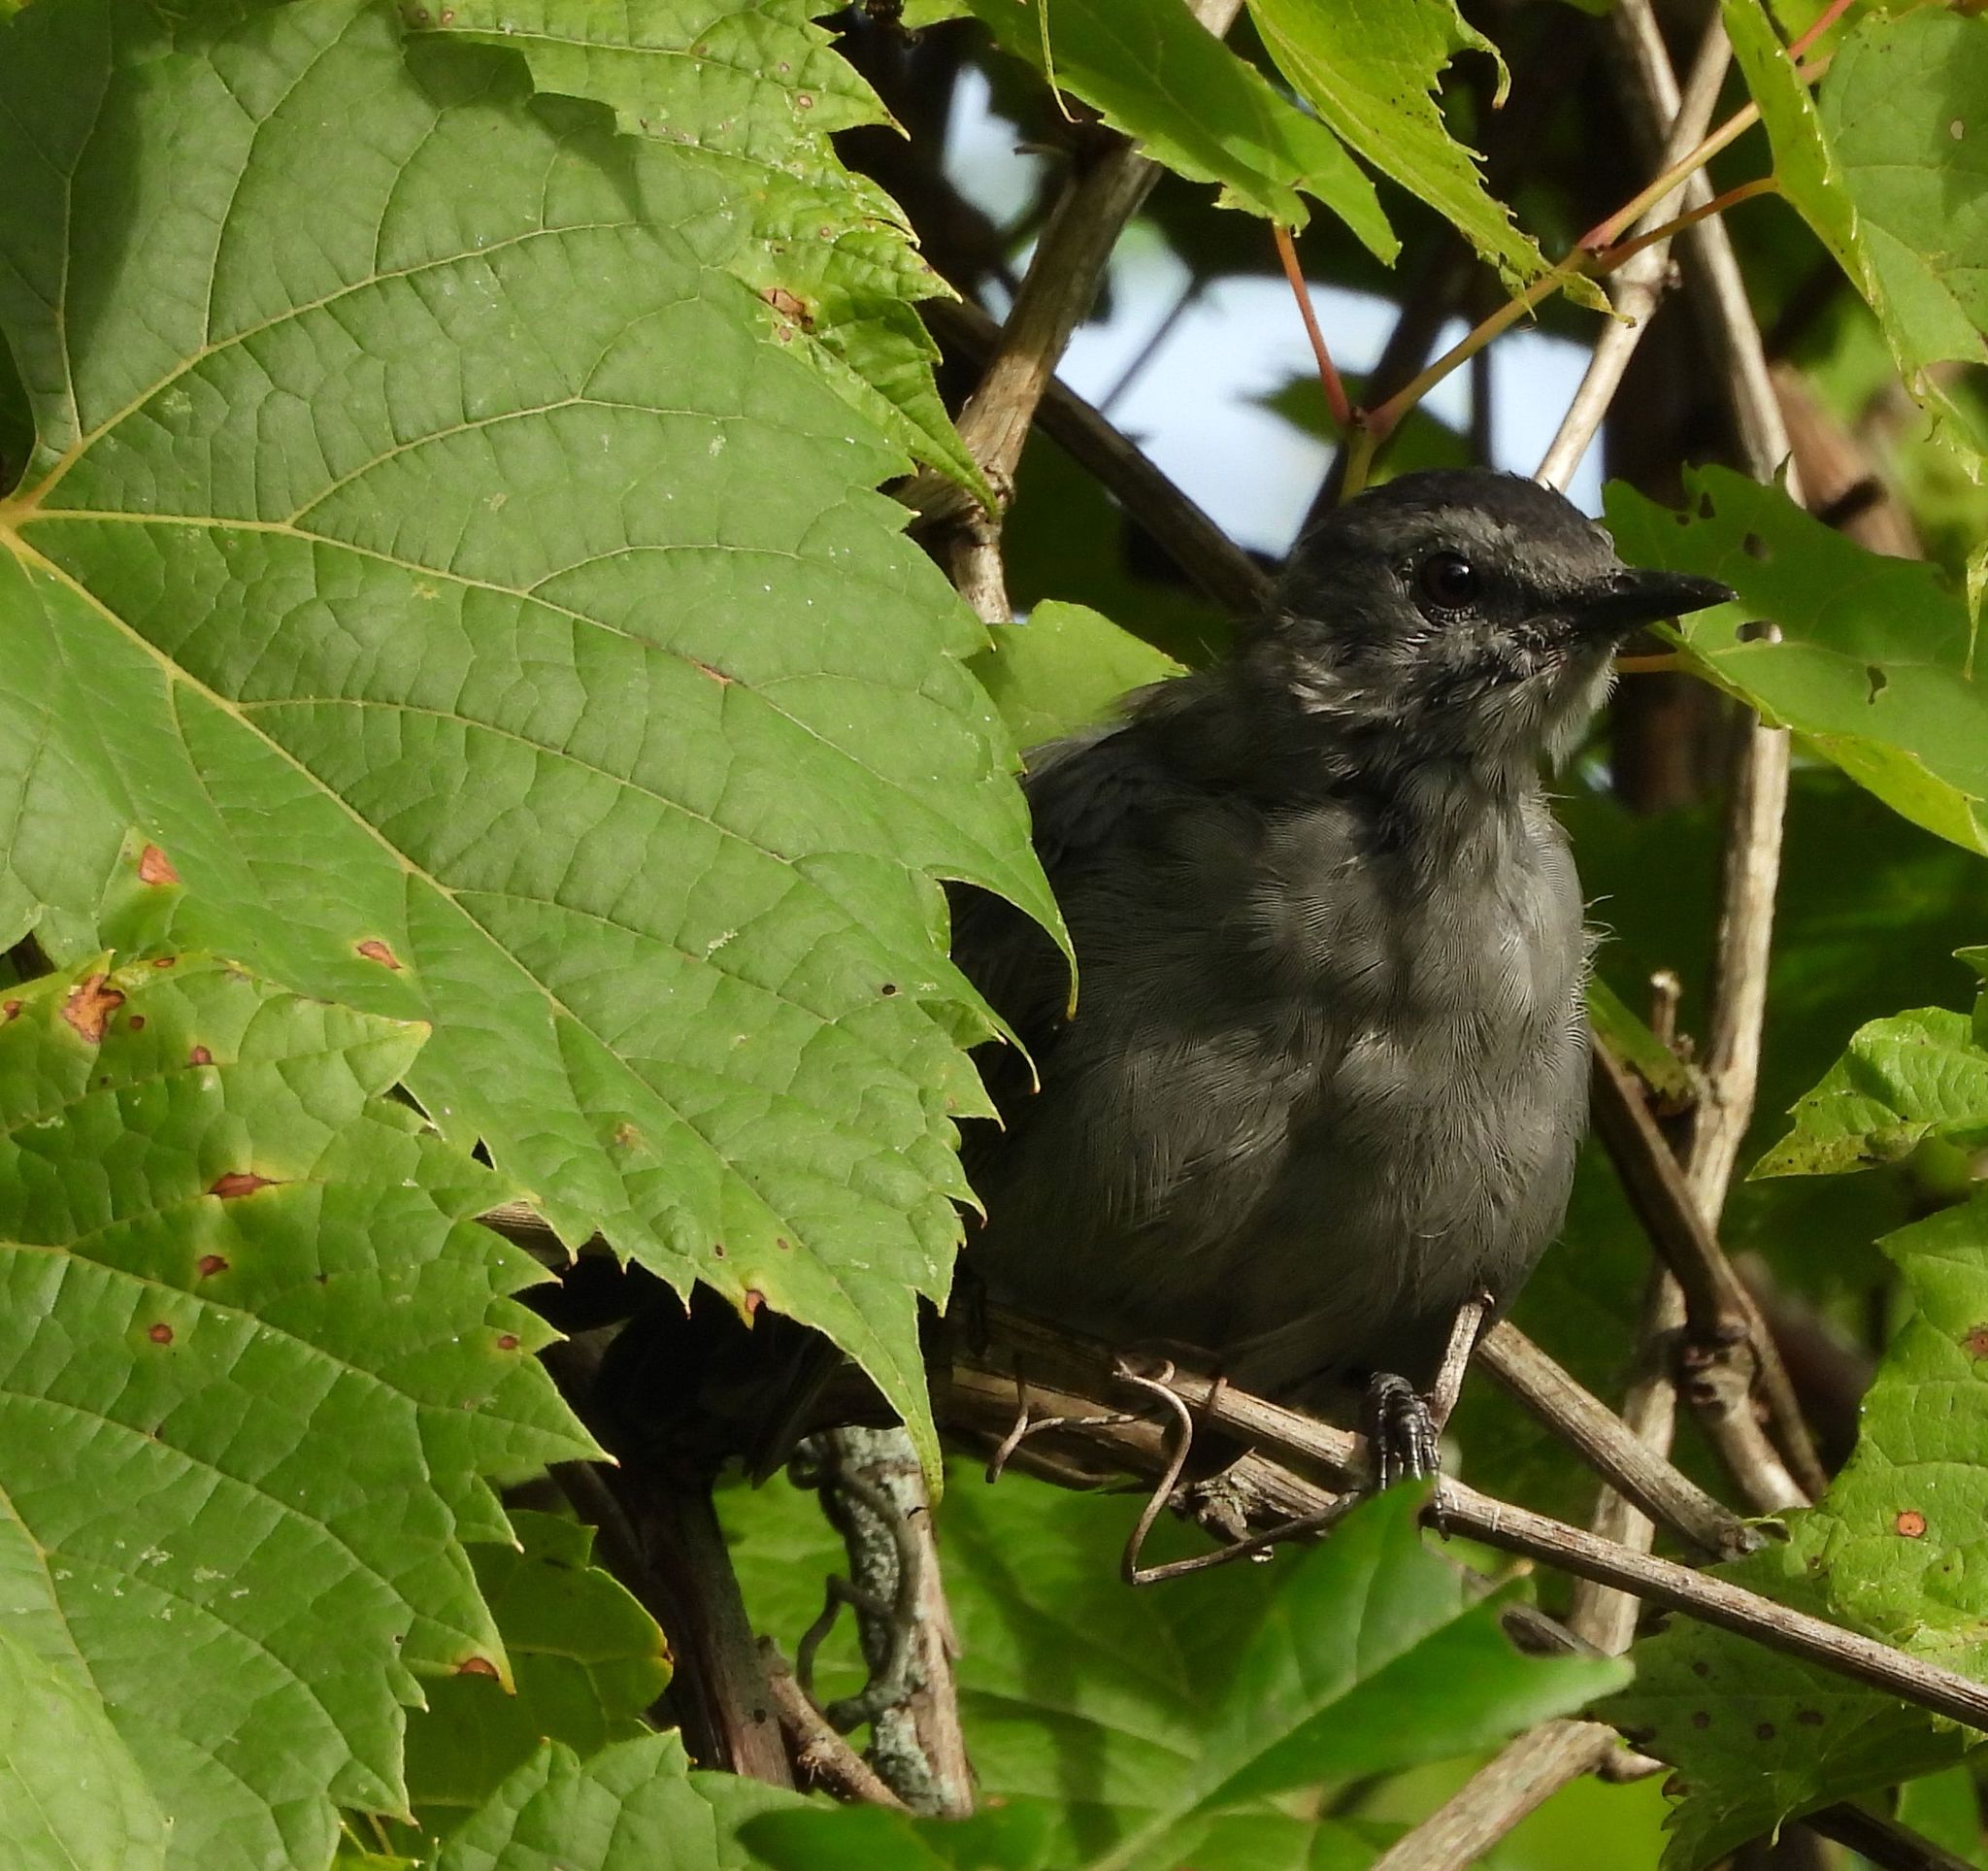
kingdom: Animalia
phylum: Chordata
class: Aves
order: Passeriformes
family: Mimidae
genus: Dumetella
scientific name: Dumetella carolinensis
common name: Gray catbird
